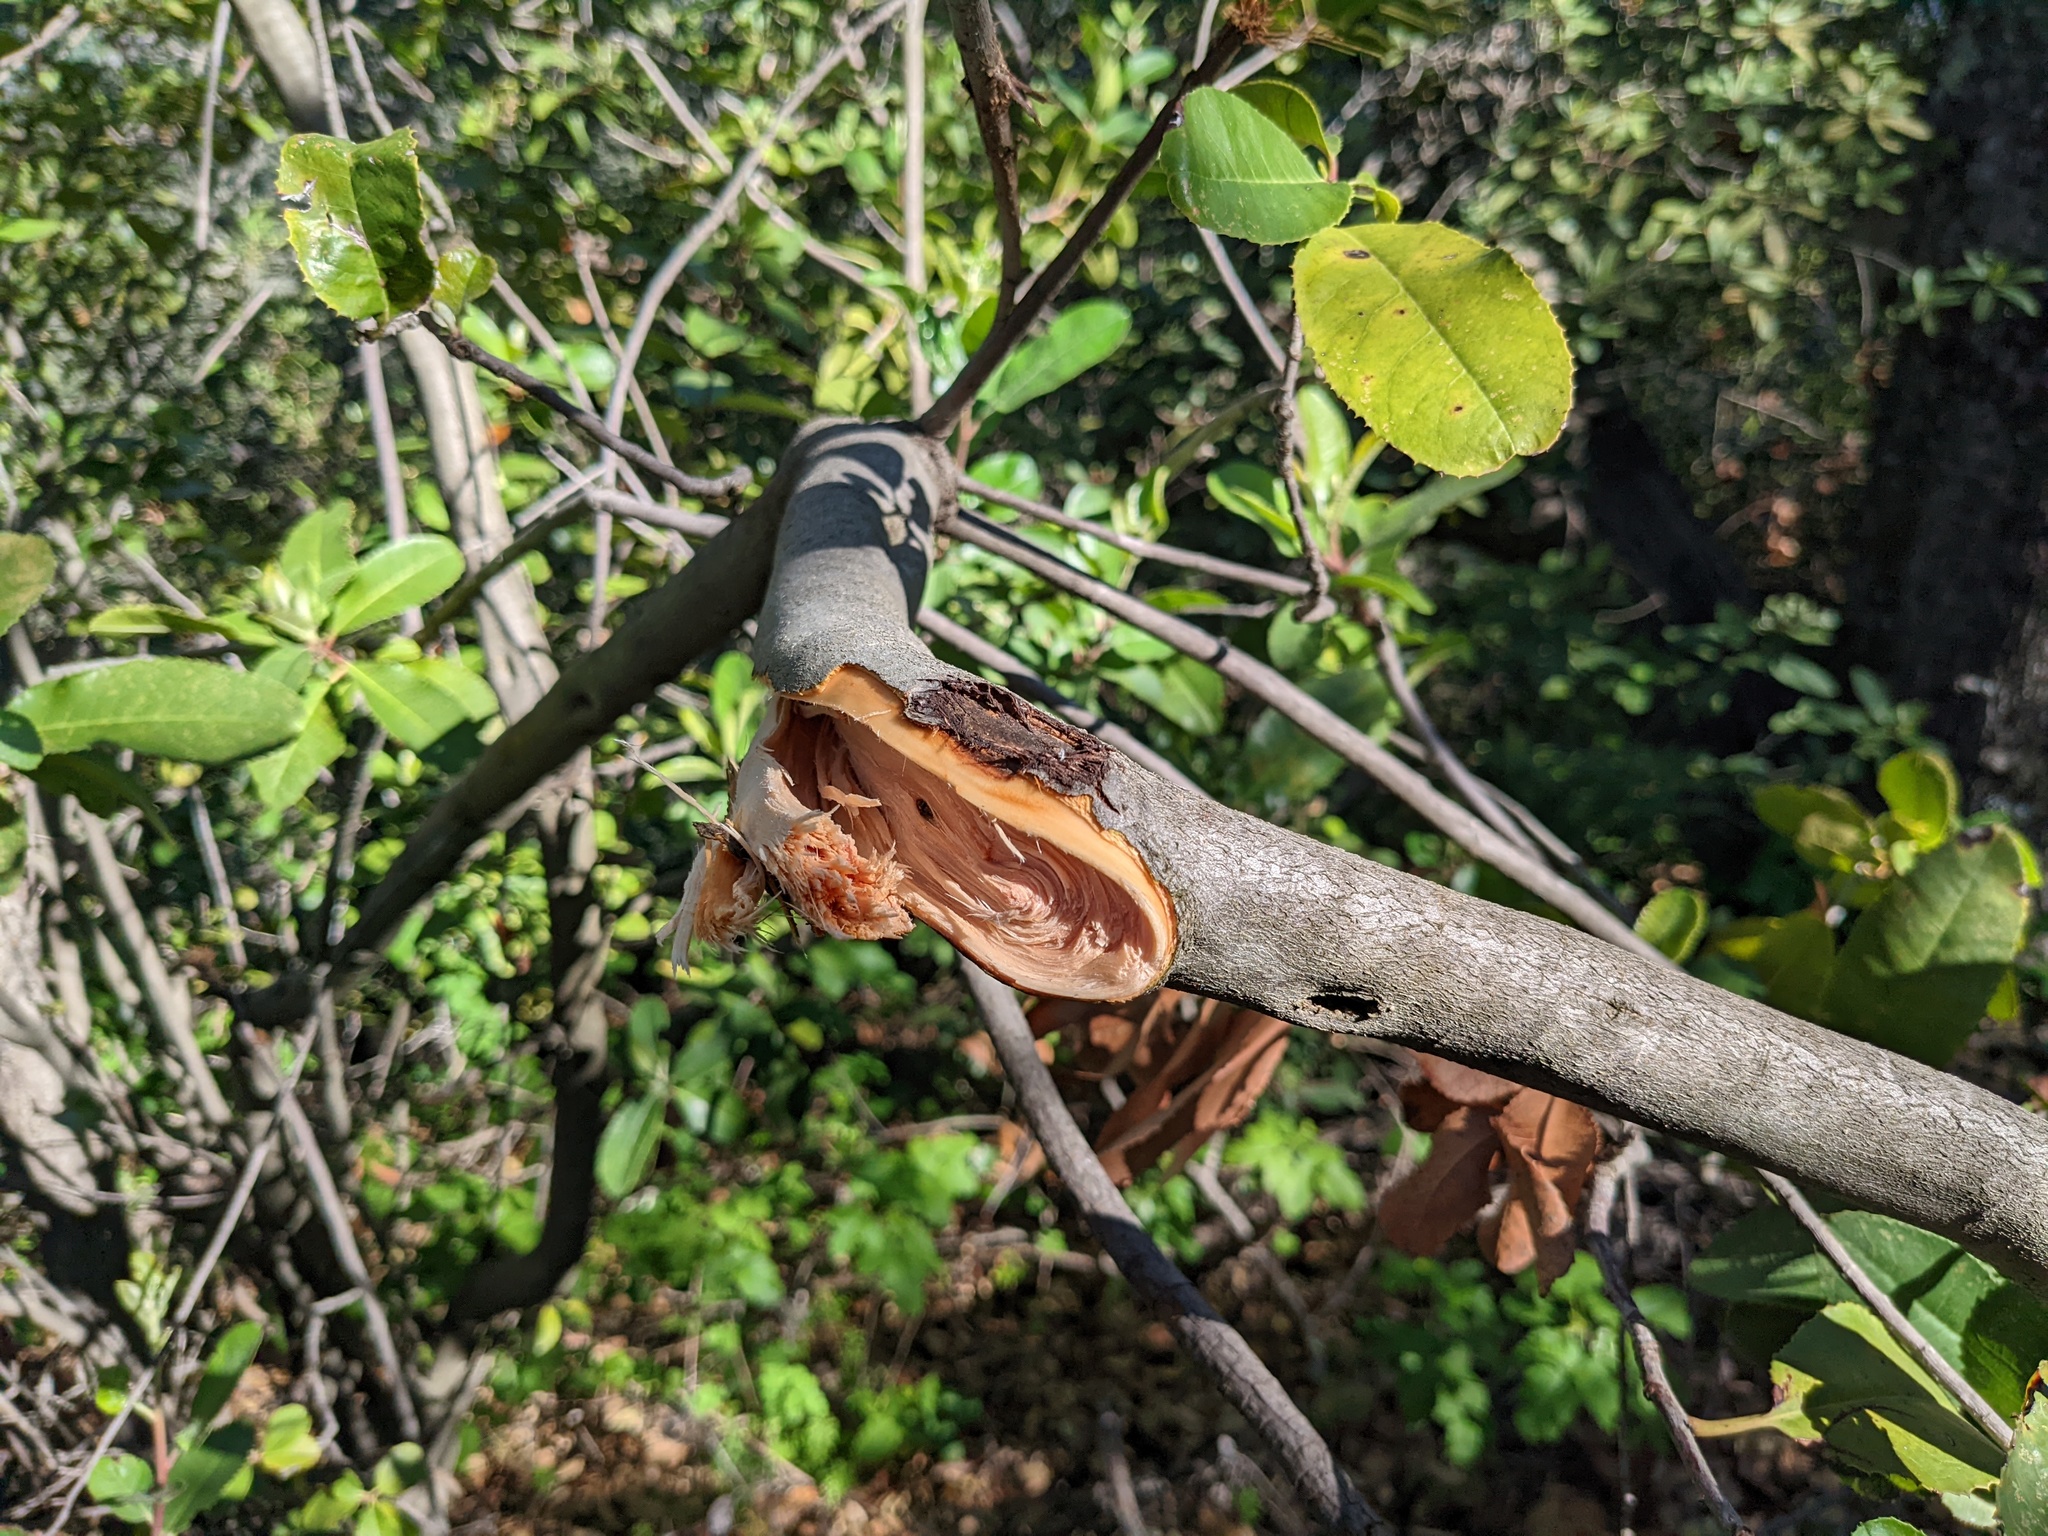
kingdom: Plantae
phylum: Tracheophyta
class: Magnoliopsida
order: Rosales
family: Rosaceae
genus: Heteromeles
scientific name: Heteromeles arbutifolia
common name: California-holly
